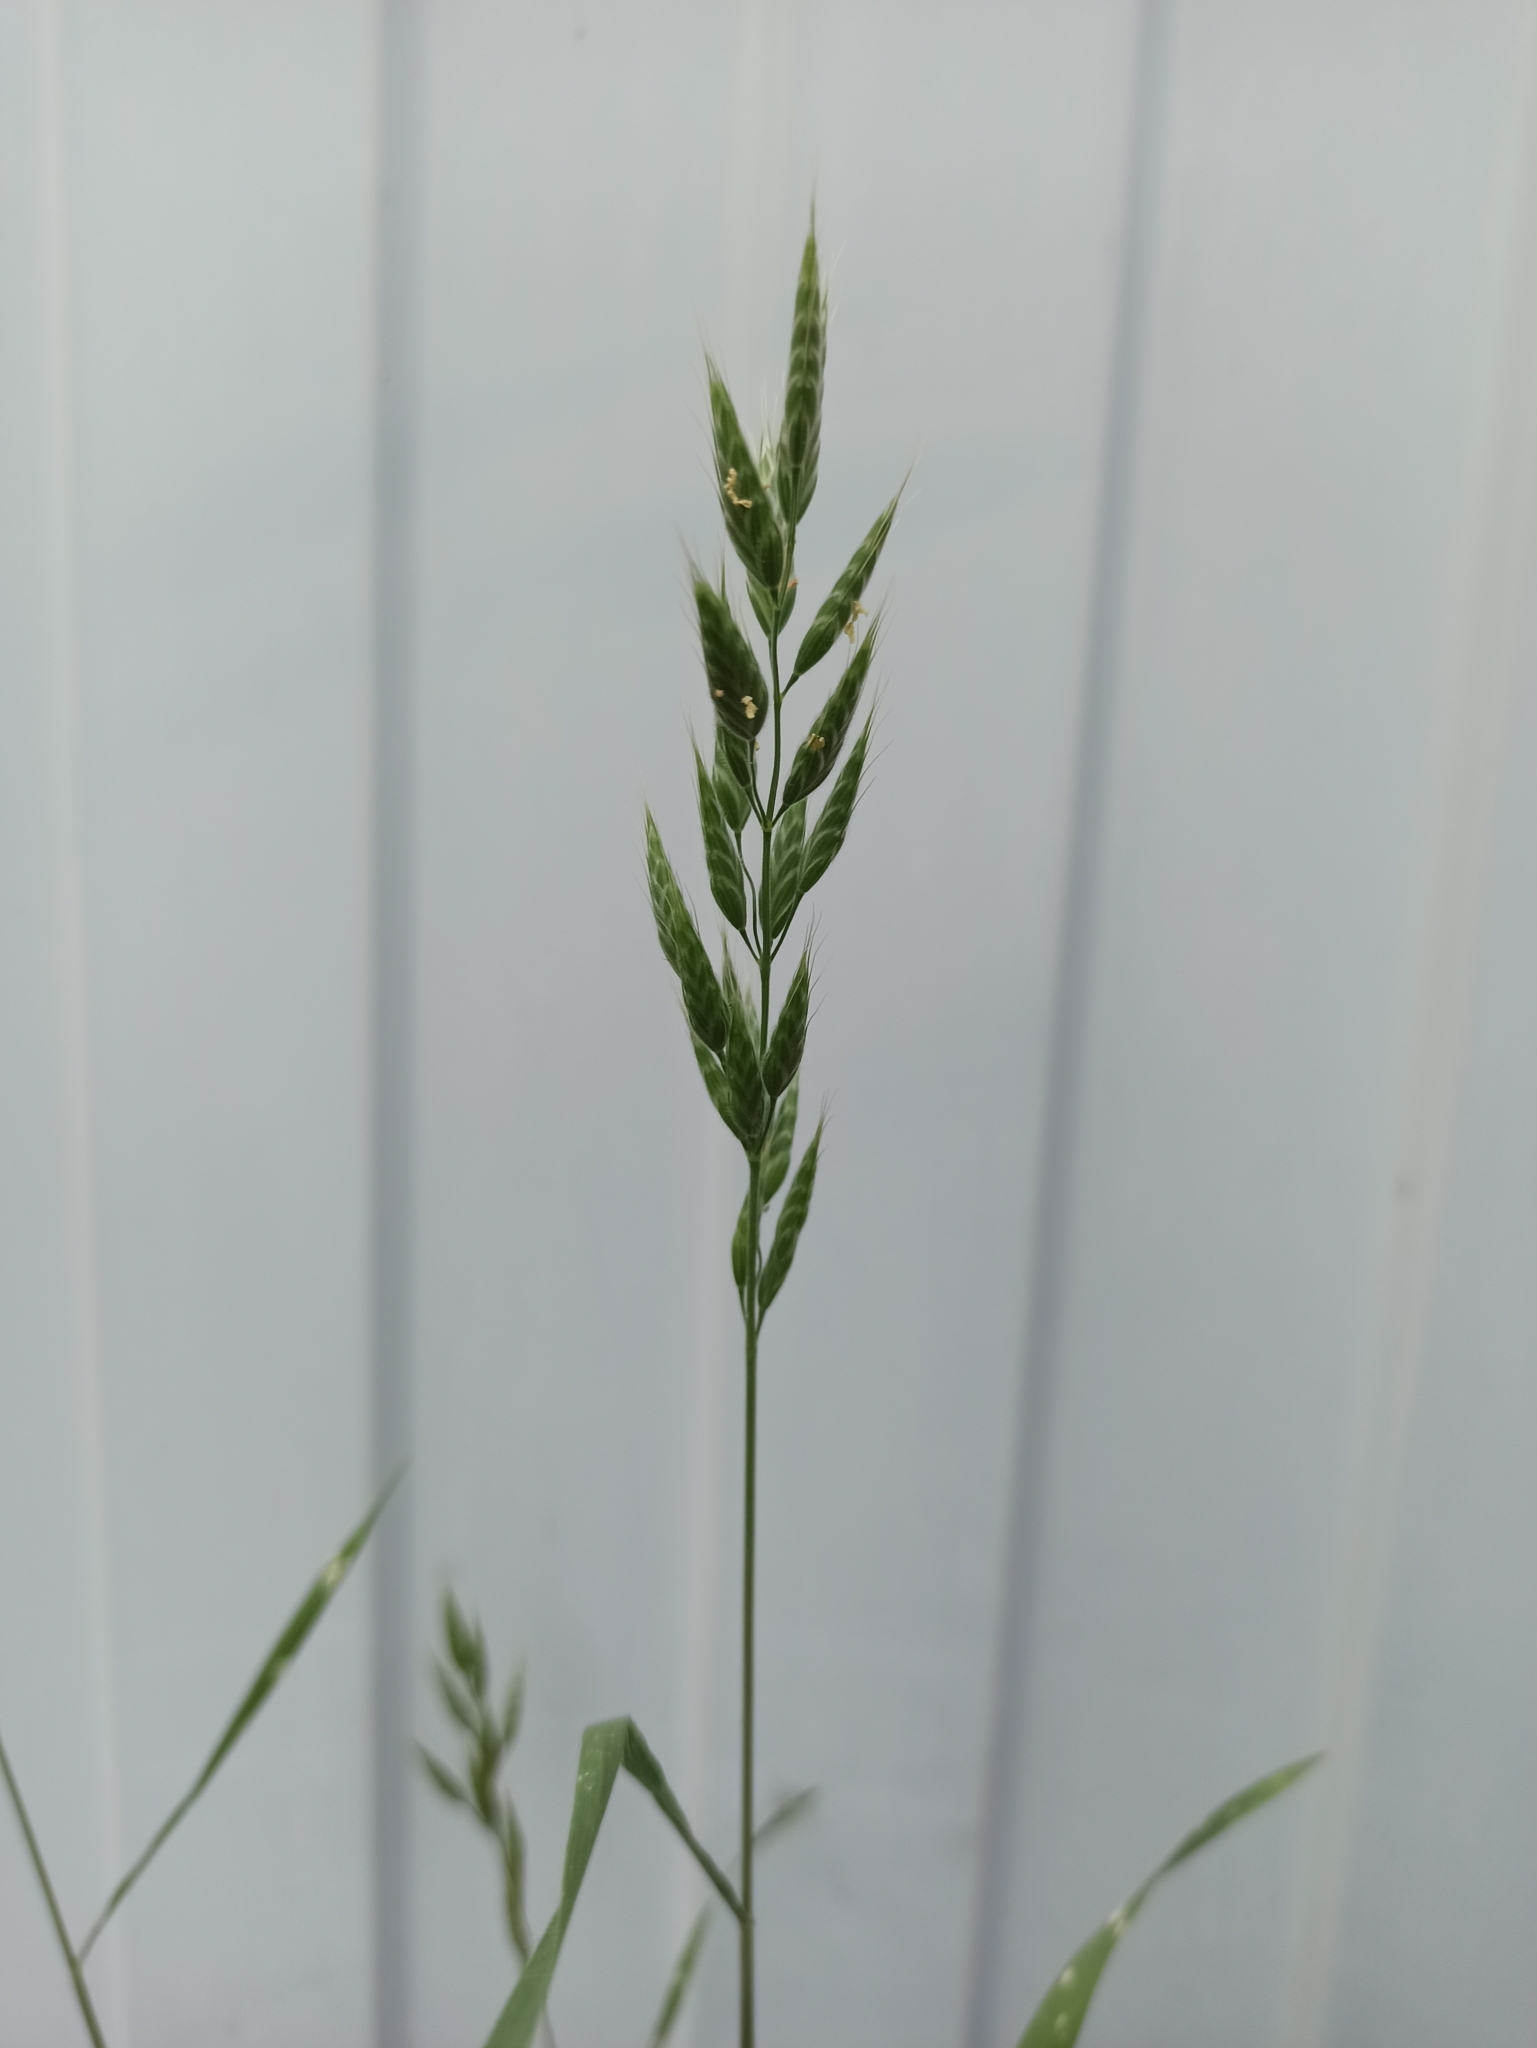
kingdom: Plantae
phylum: Tracheophyta
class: Liliopsida
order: Poales
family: Poaceae
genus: Bromus
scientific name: Bromus hordeaceus
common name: Soft brome
